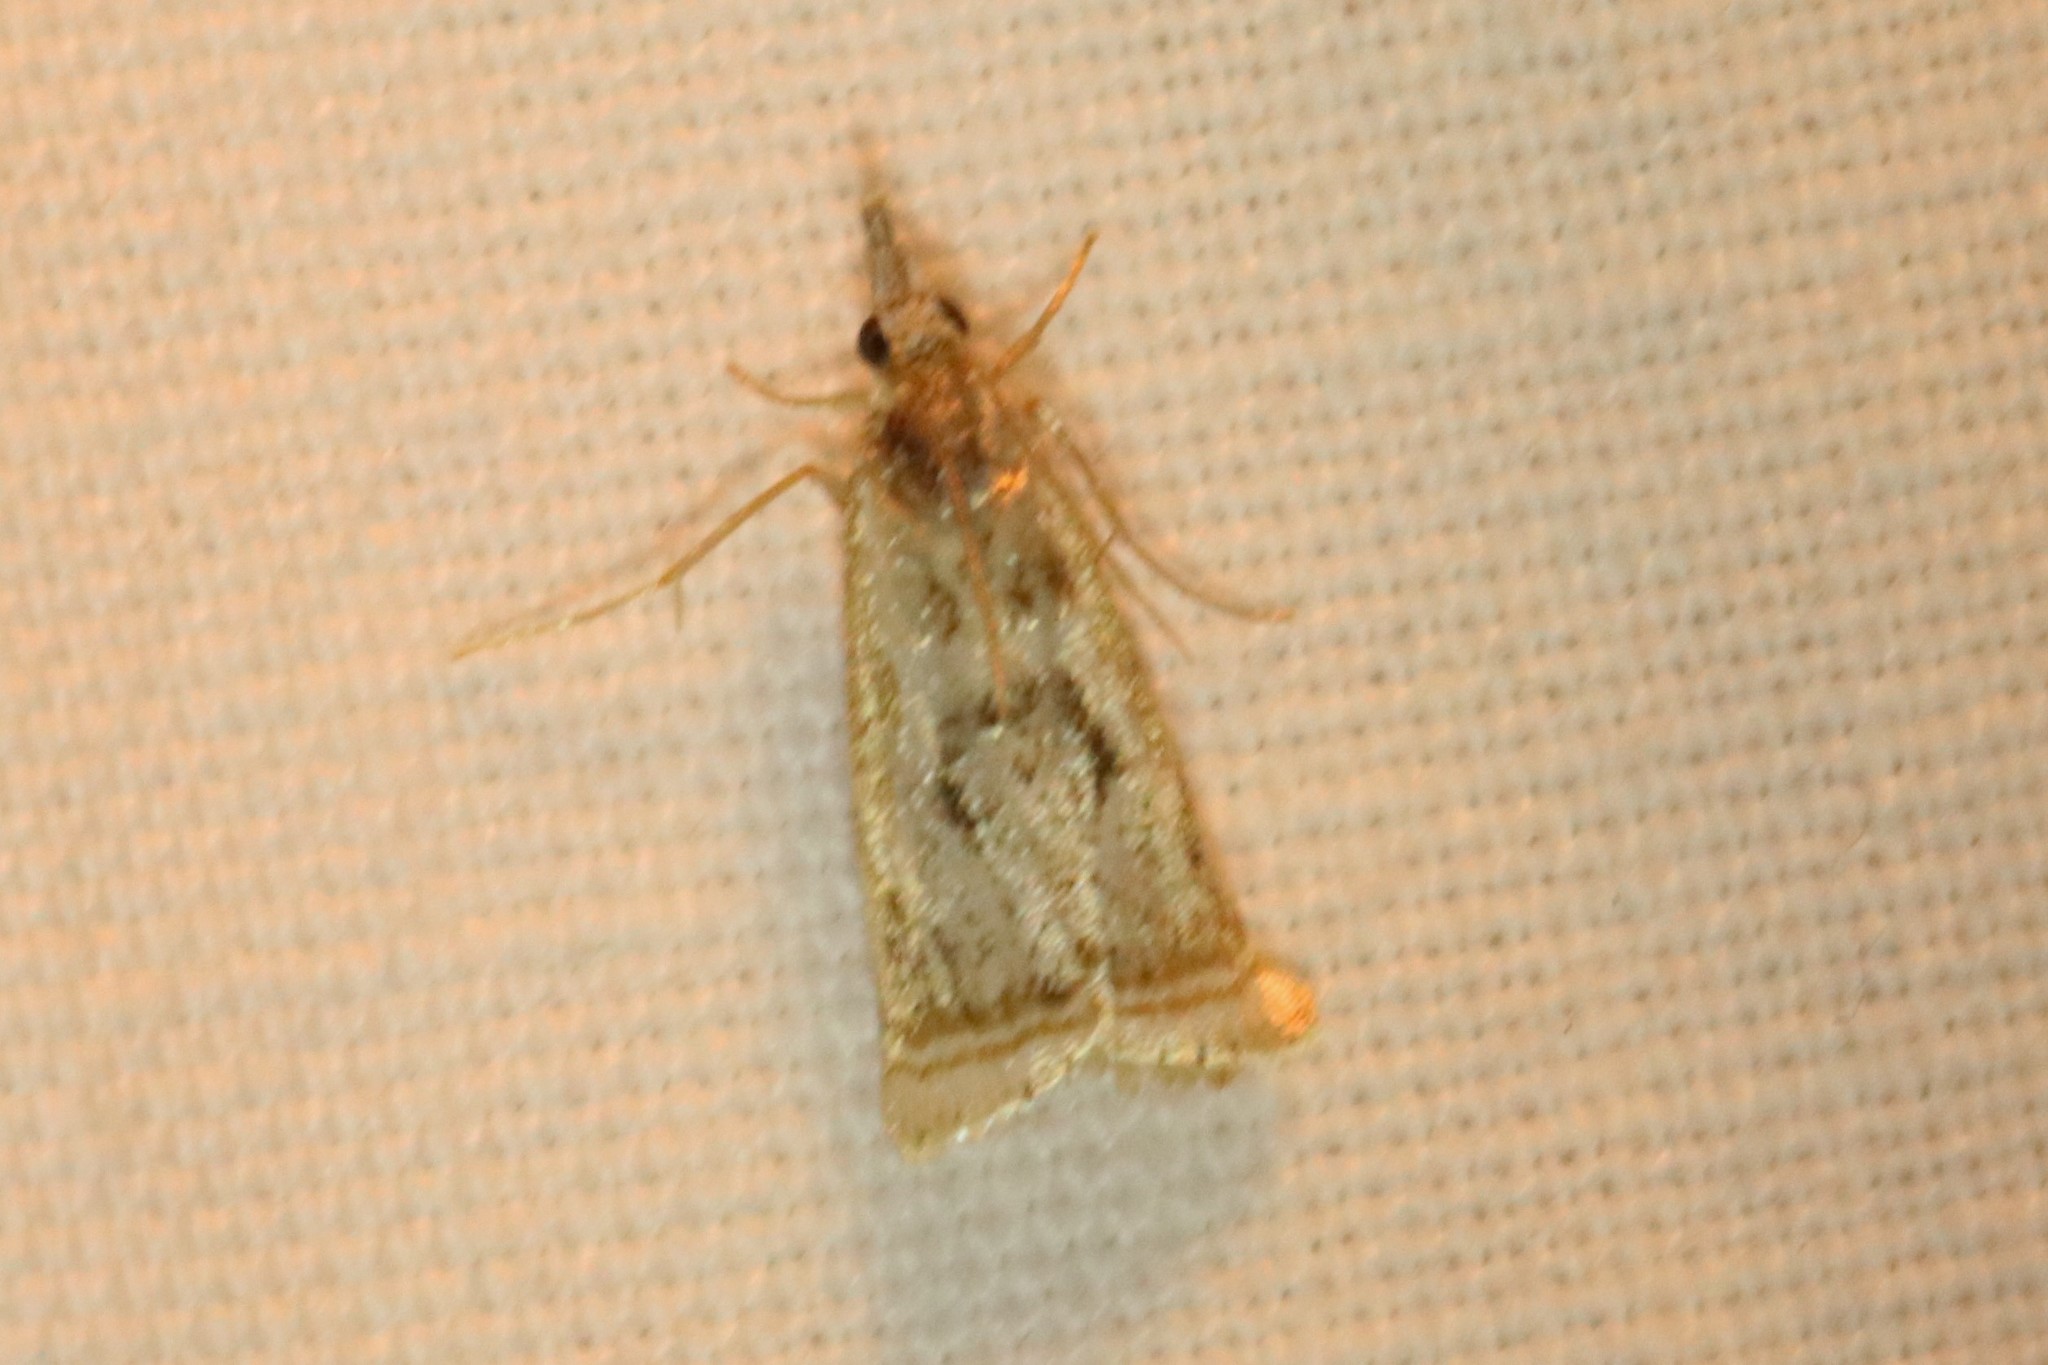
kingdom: Animalia
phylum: Arthropoda
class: Insecta
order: Lepidoptera
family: Crambidae
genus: Microcrambus
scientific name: Microcrambus elegans
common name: Elegant grass-veneer
